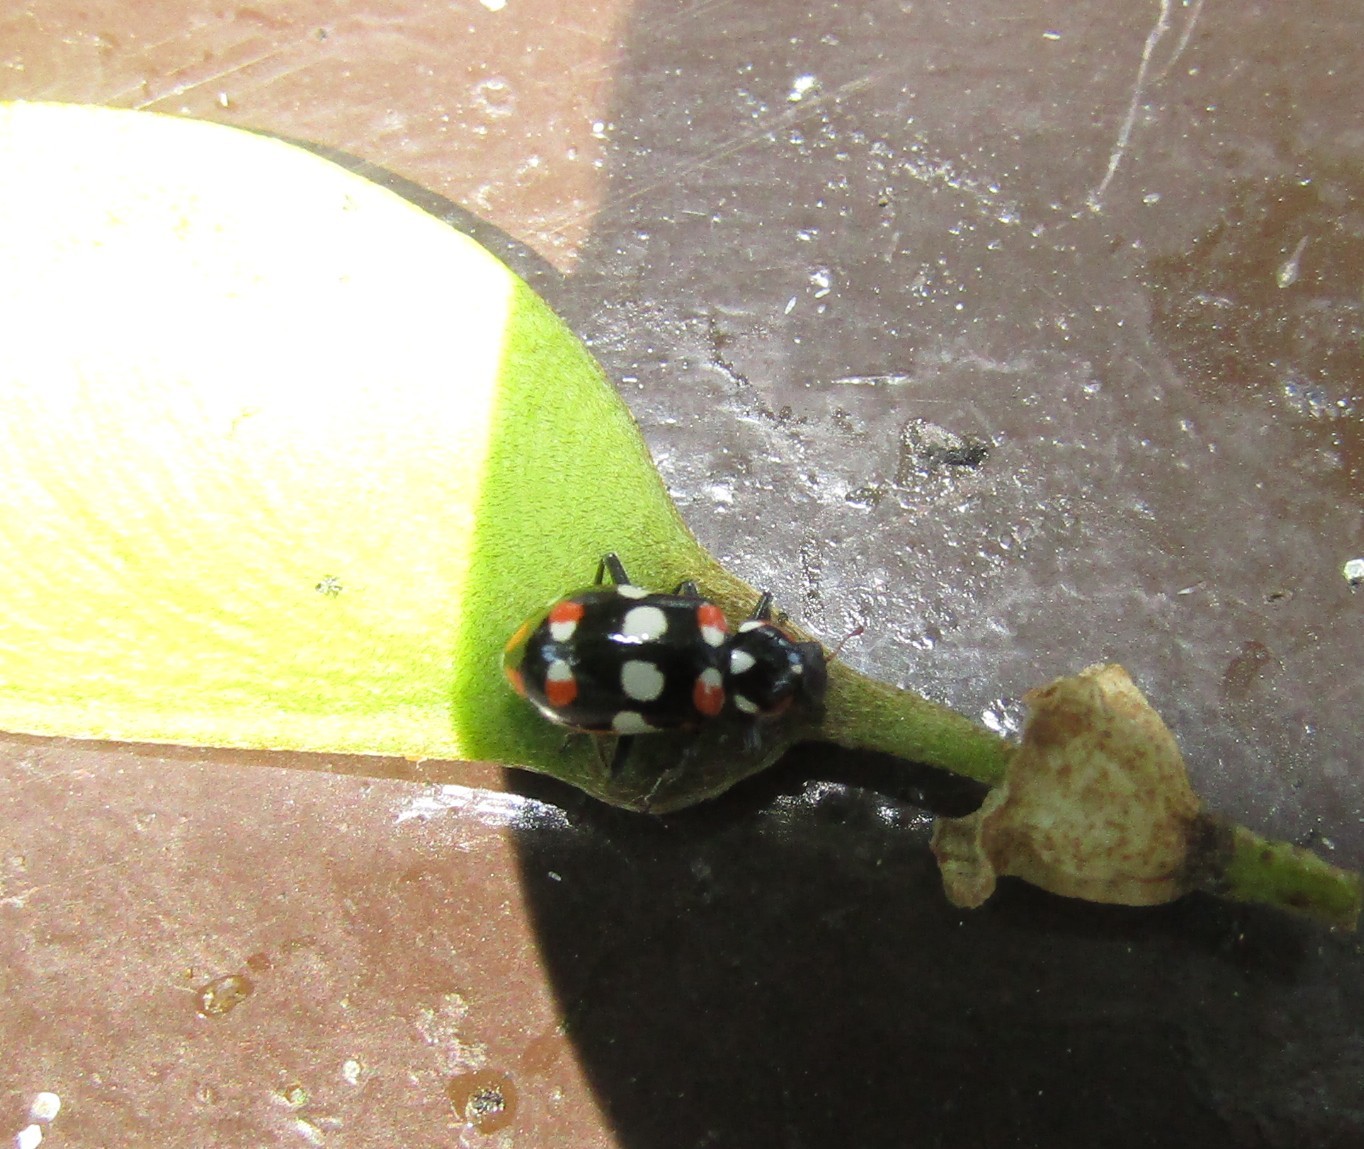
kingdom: Animalia
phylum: Arthropoda
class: Insecta
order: Coleoptera
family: Coccinellidae
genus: Eriopis
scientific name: Eriopis connexa
